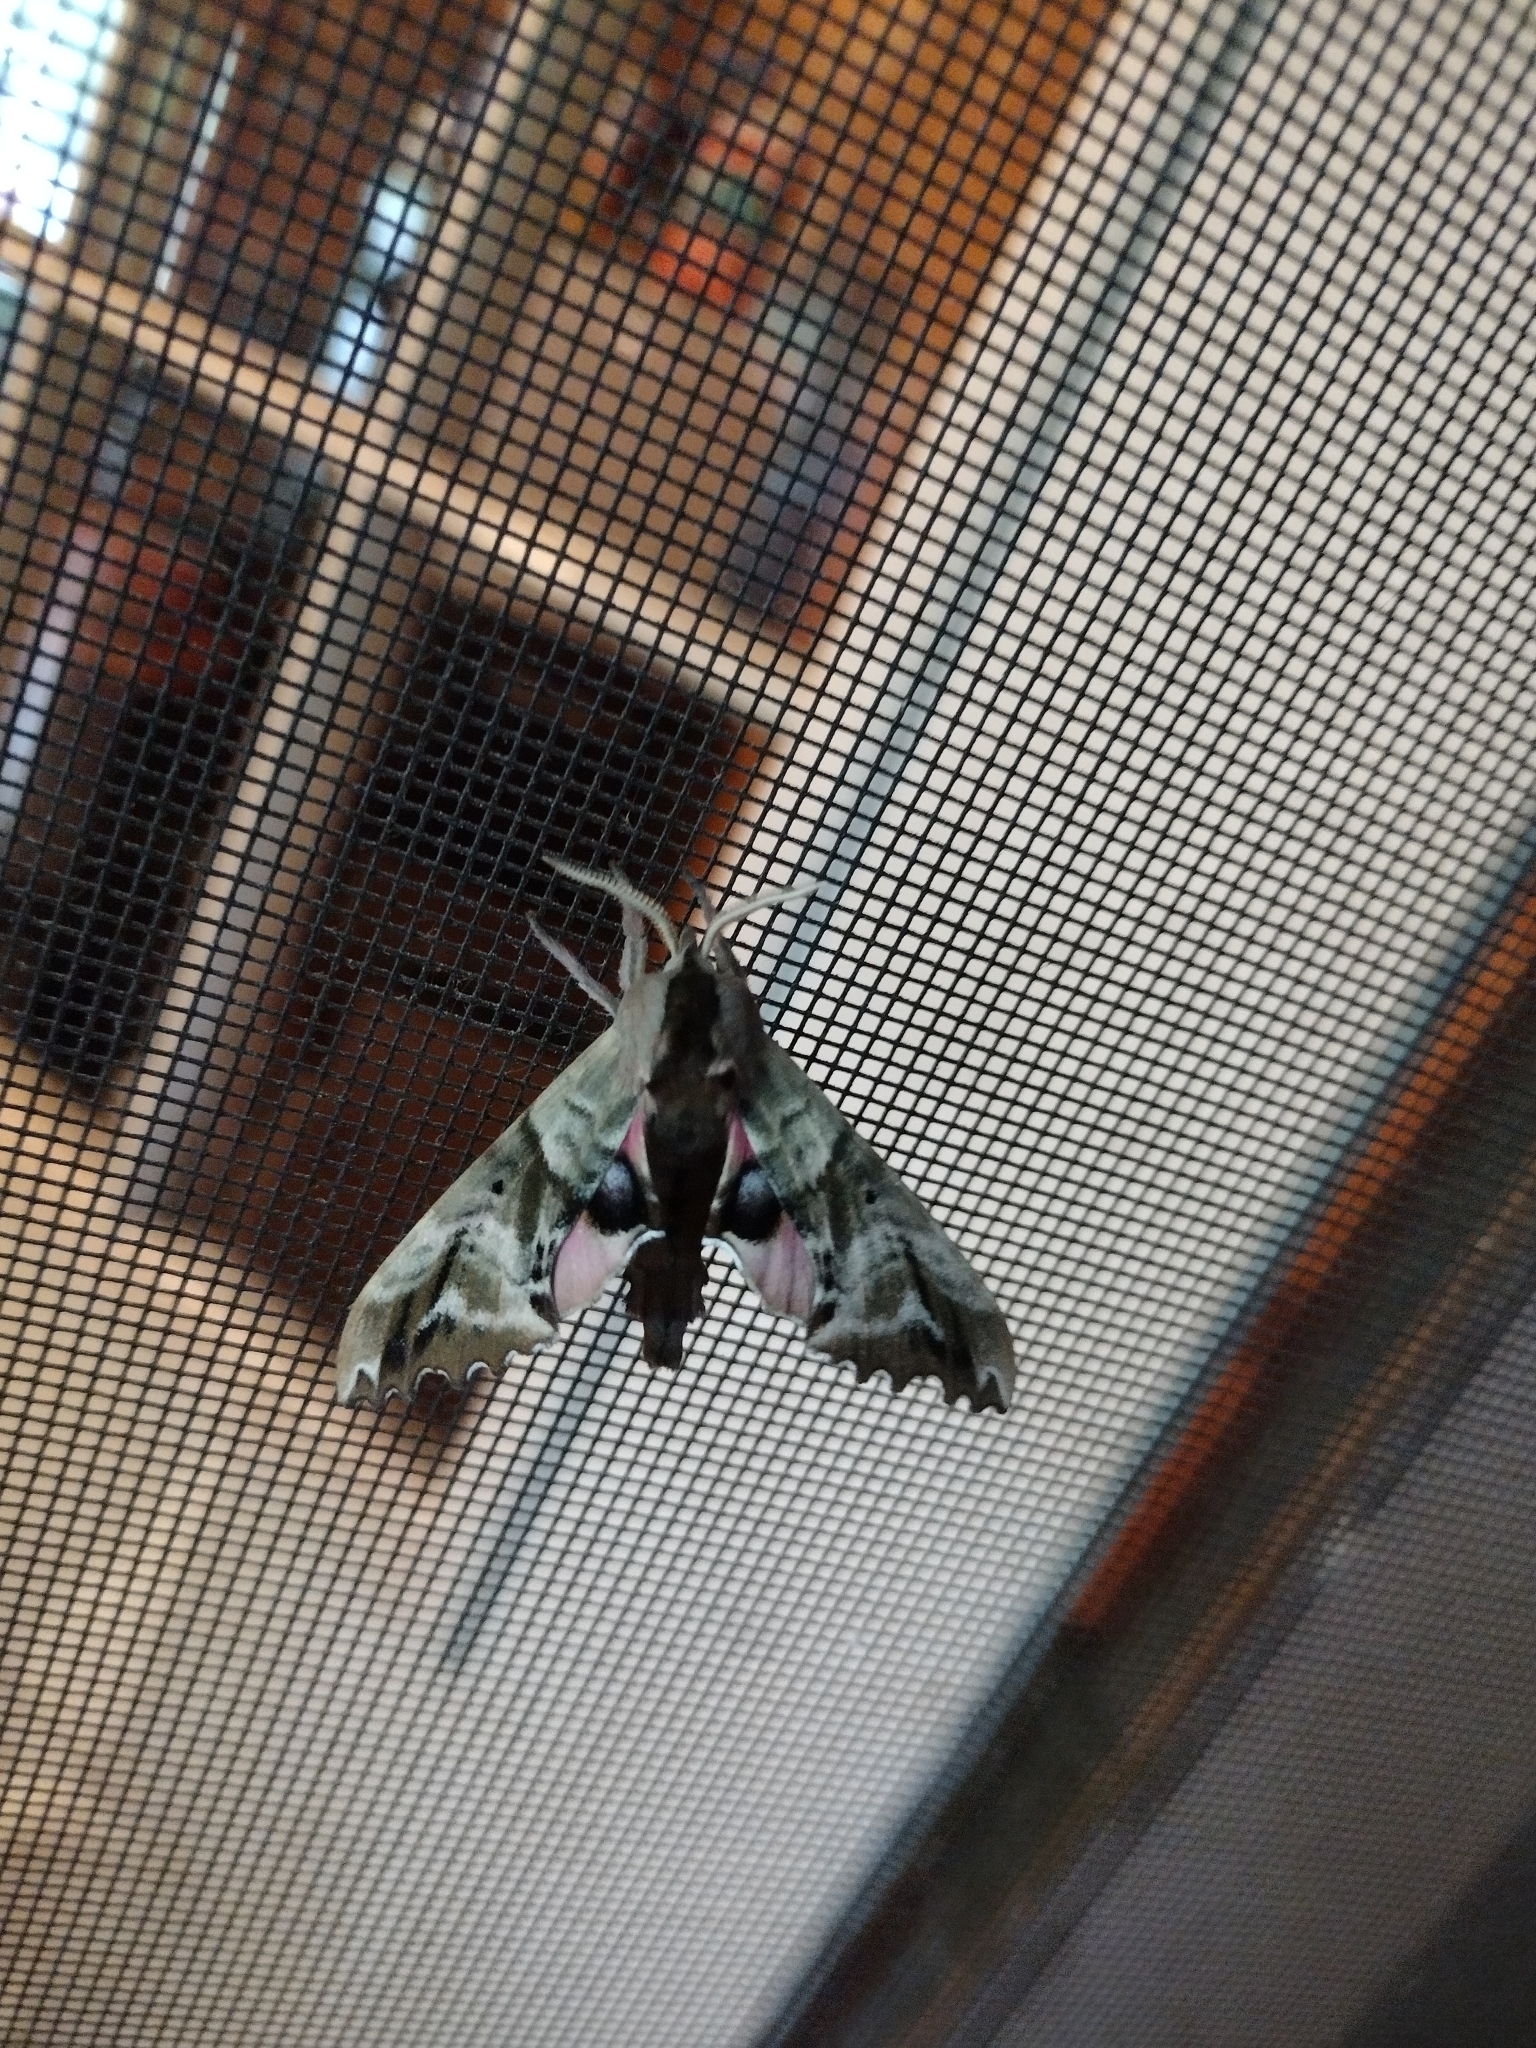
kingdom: Animalia
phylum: Arthropoda
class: Insecta
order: Lepidoptera
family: Sphingidae
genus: Paonias
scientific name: Paonias excaecata
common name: Blind-eyed sphinx
